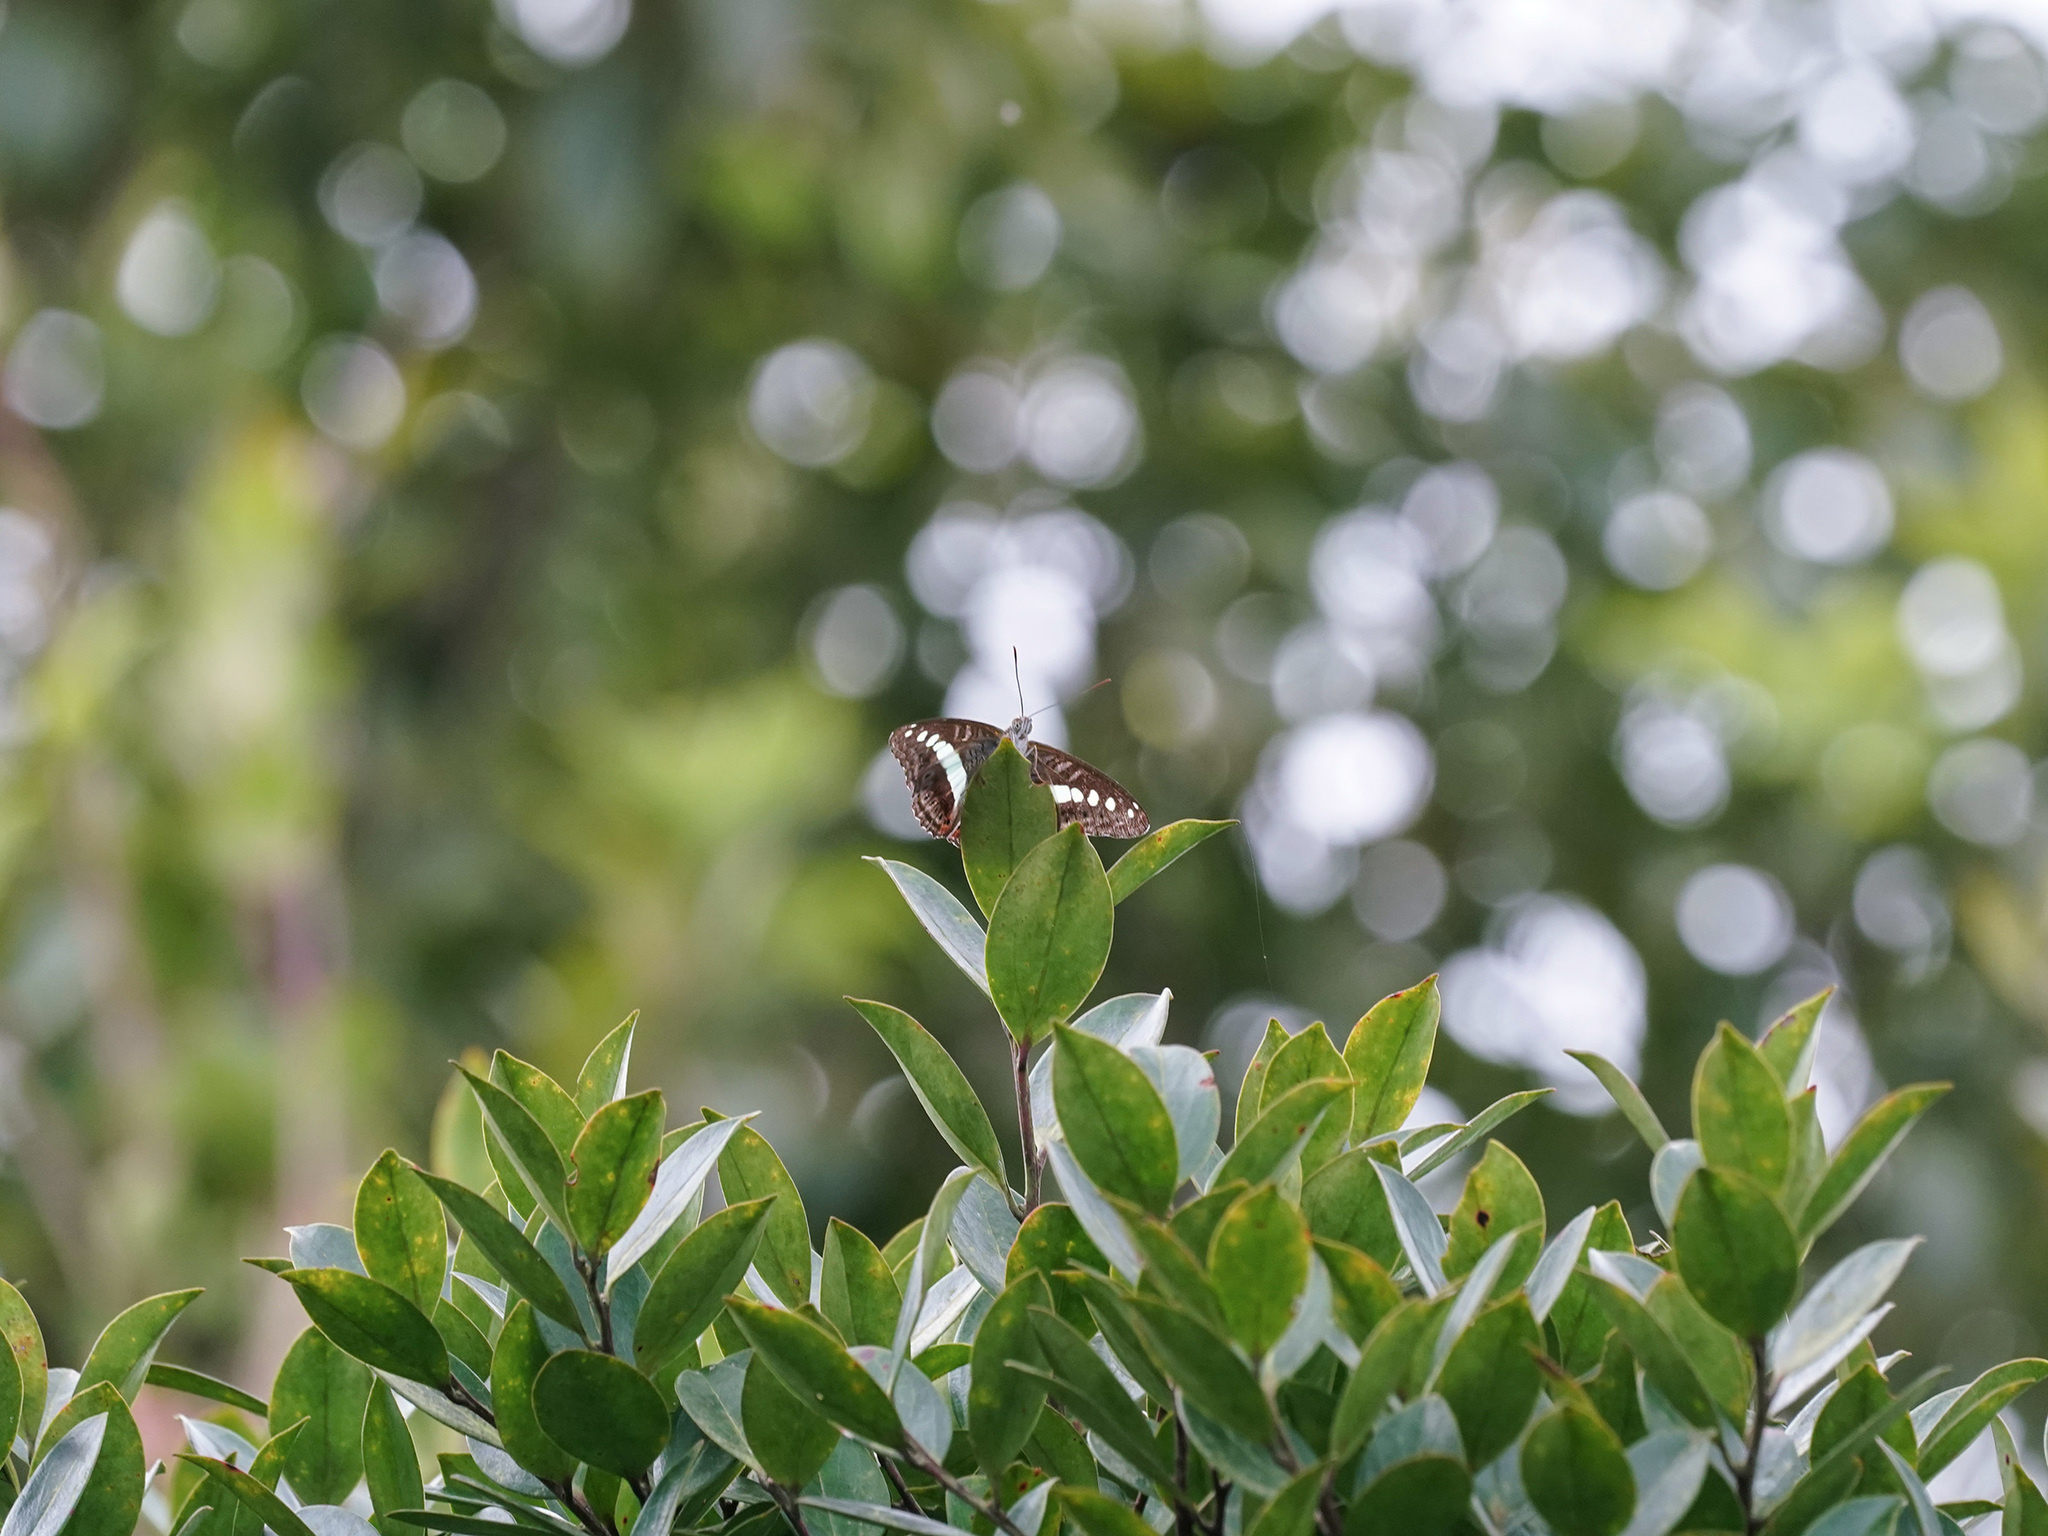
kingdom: Animalia
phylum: Arthropoda
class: Insecta
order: Lepidoptera
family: Nymphalidae
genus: Limenitis
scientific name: Limenitis Sumalia daraxa
